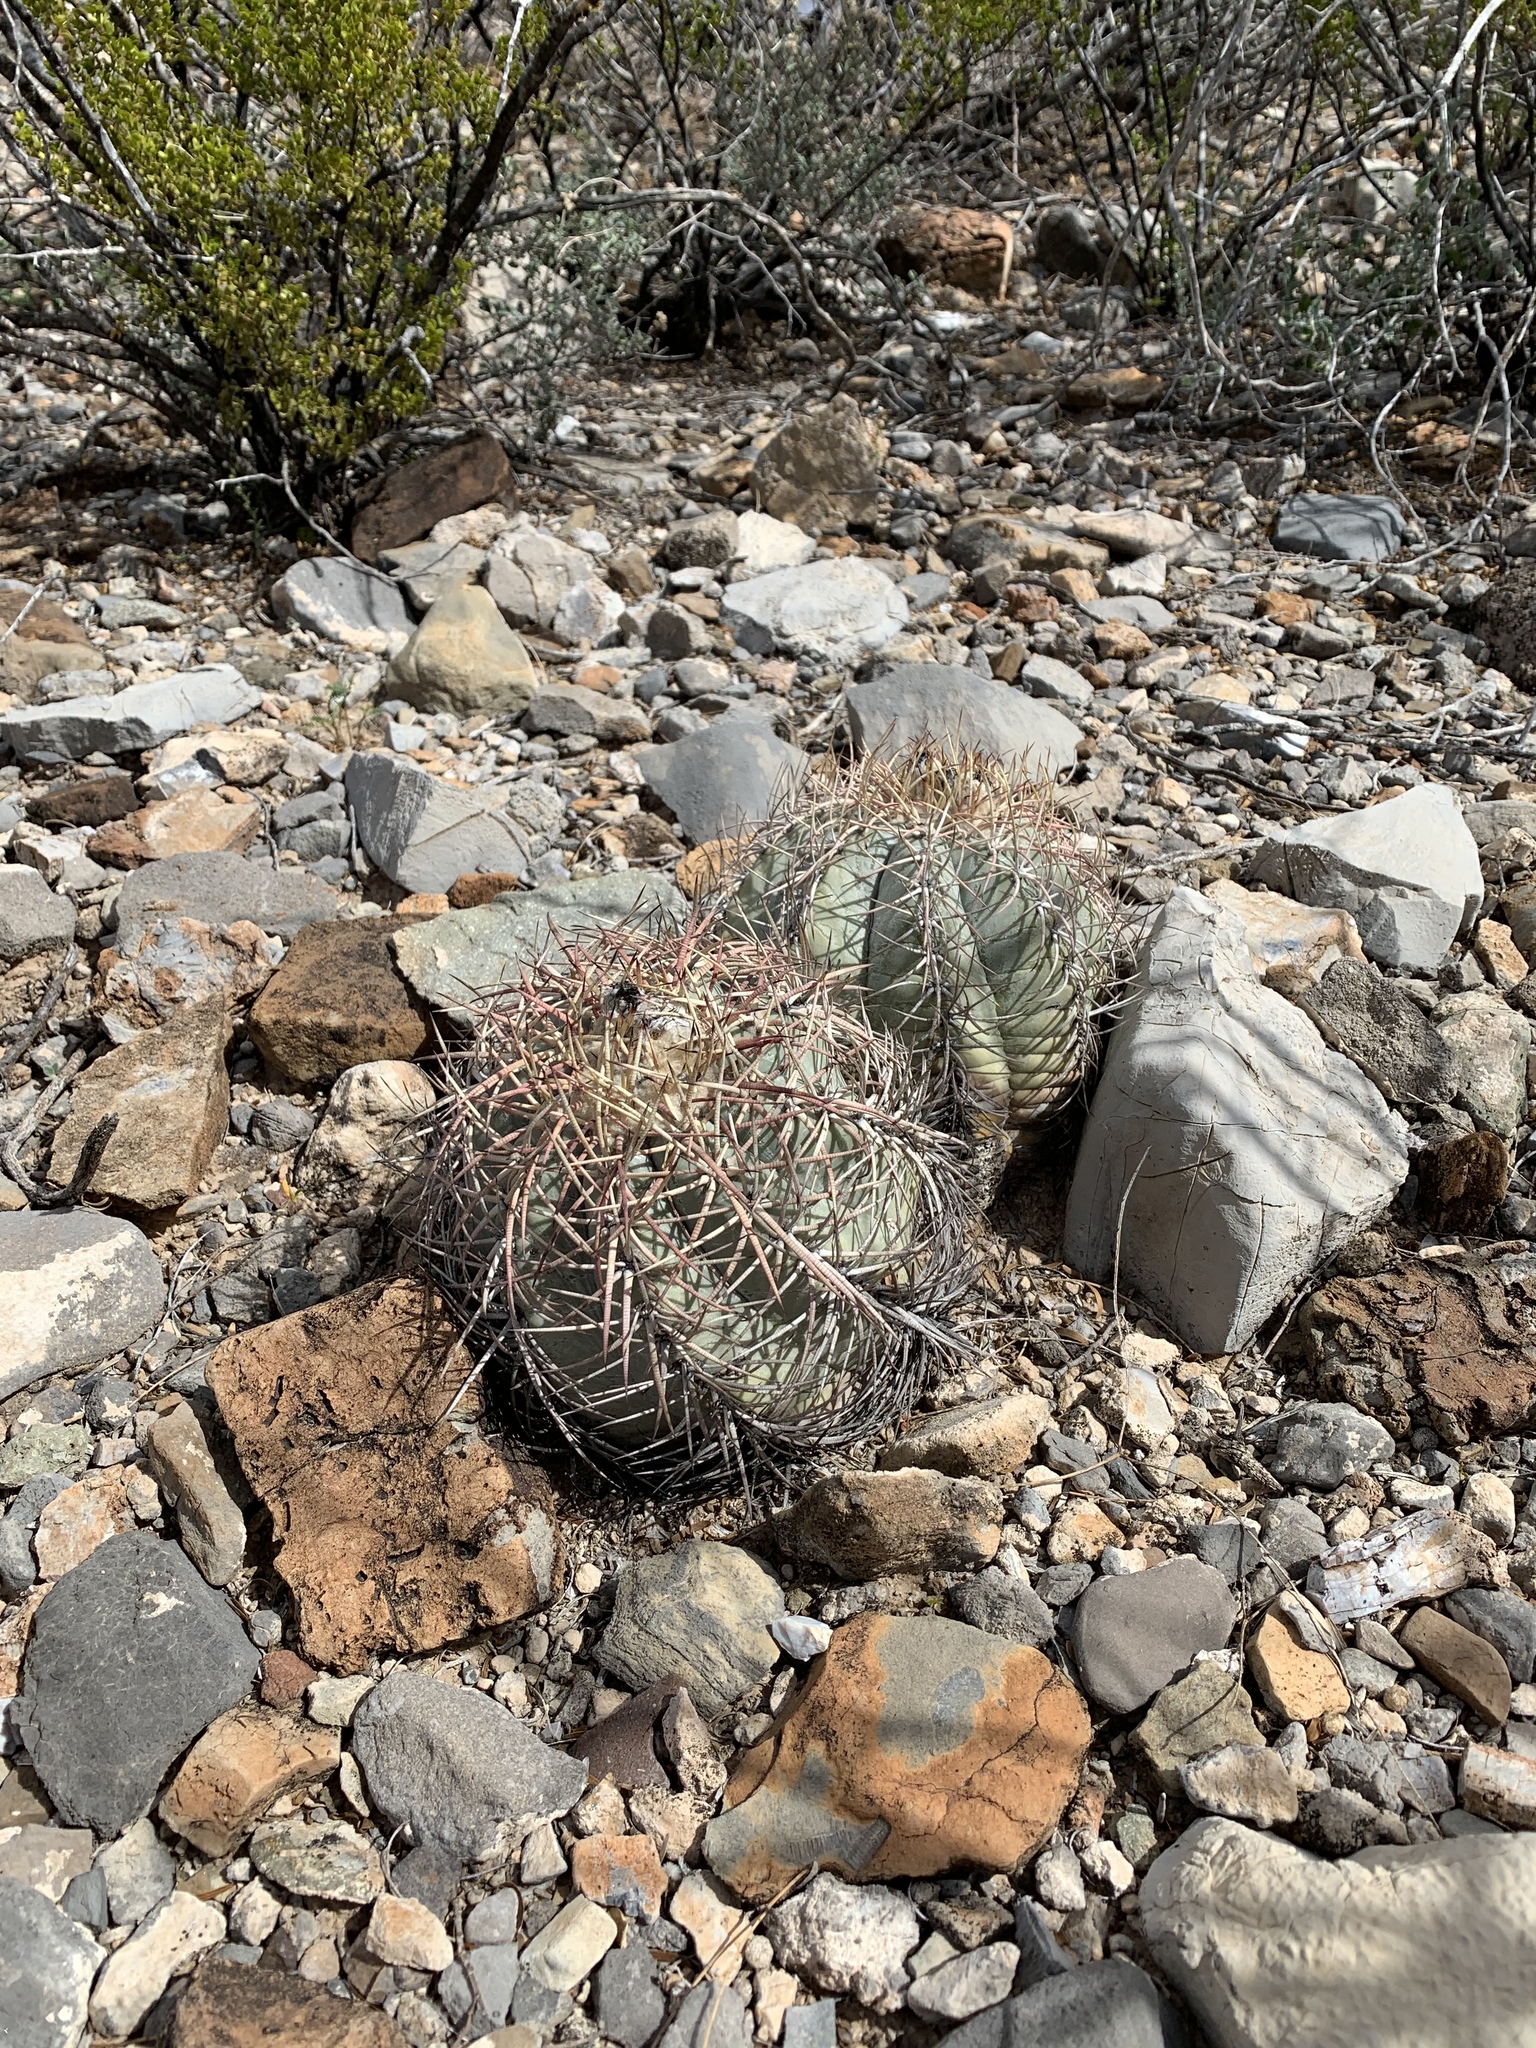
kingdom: Plantae
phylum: Tracheophyta
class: Magnoliopsida
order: Caryophyllales
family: Cactaceae
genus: Echinocactus
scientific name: Echinocactus horizonthalonius
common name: Devilshead
